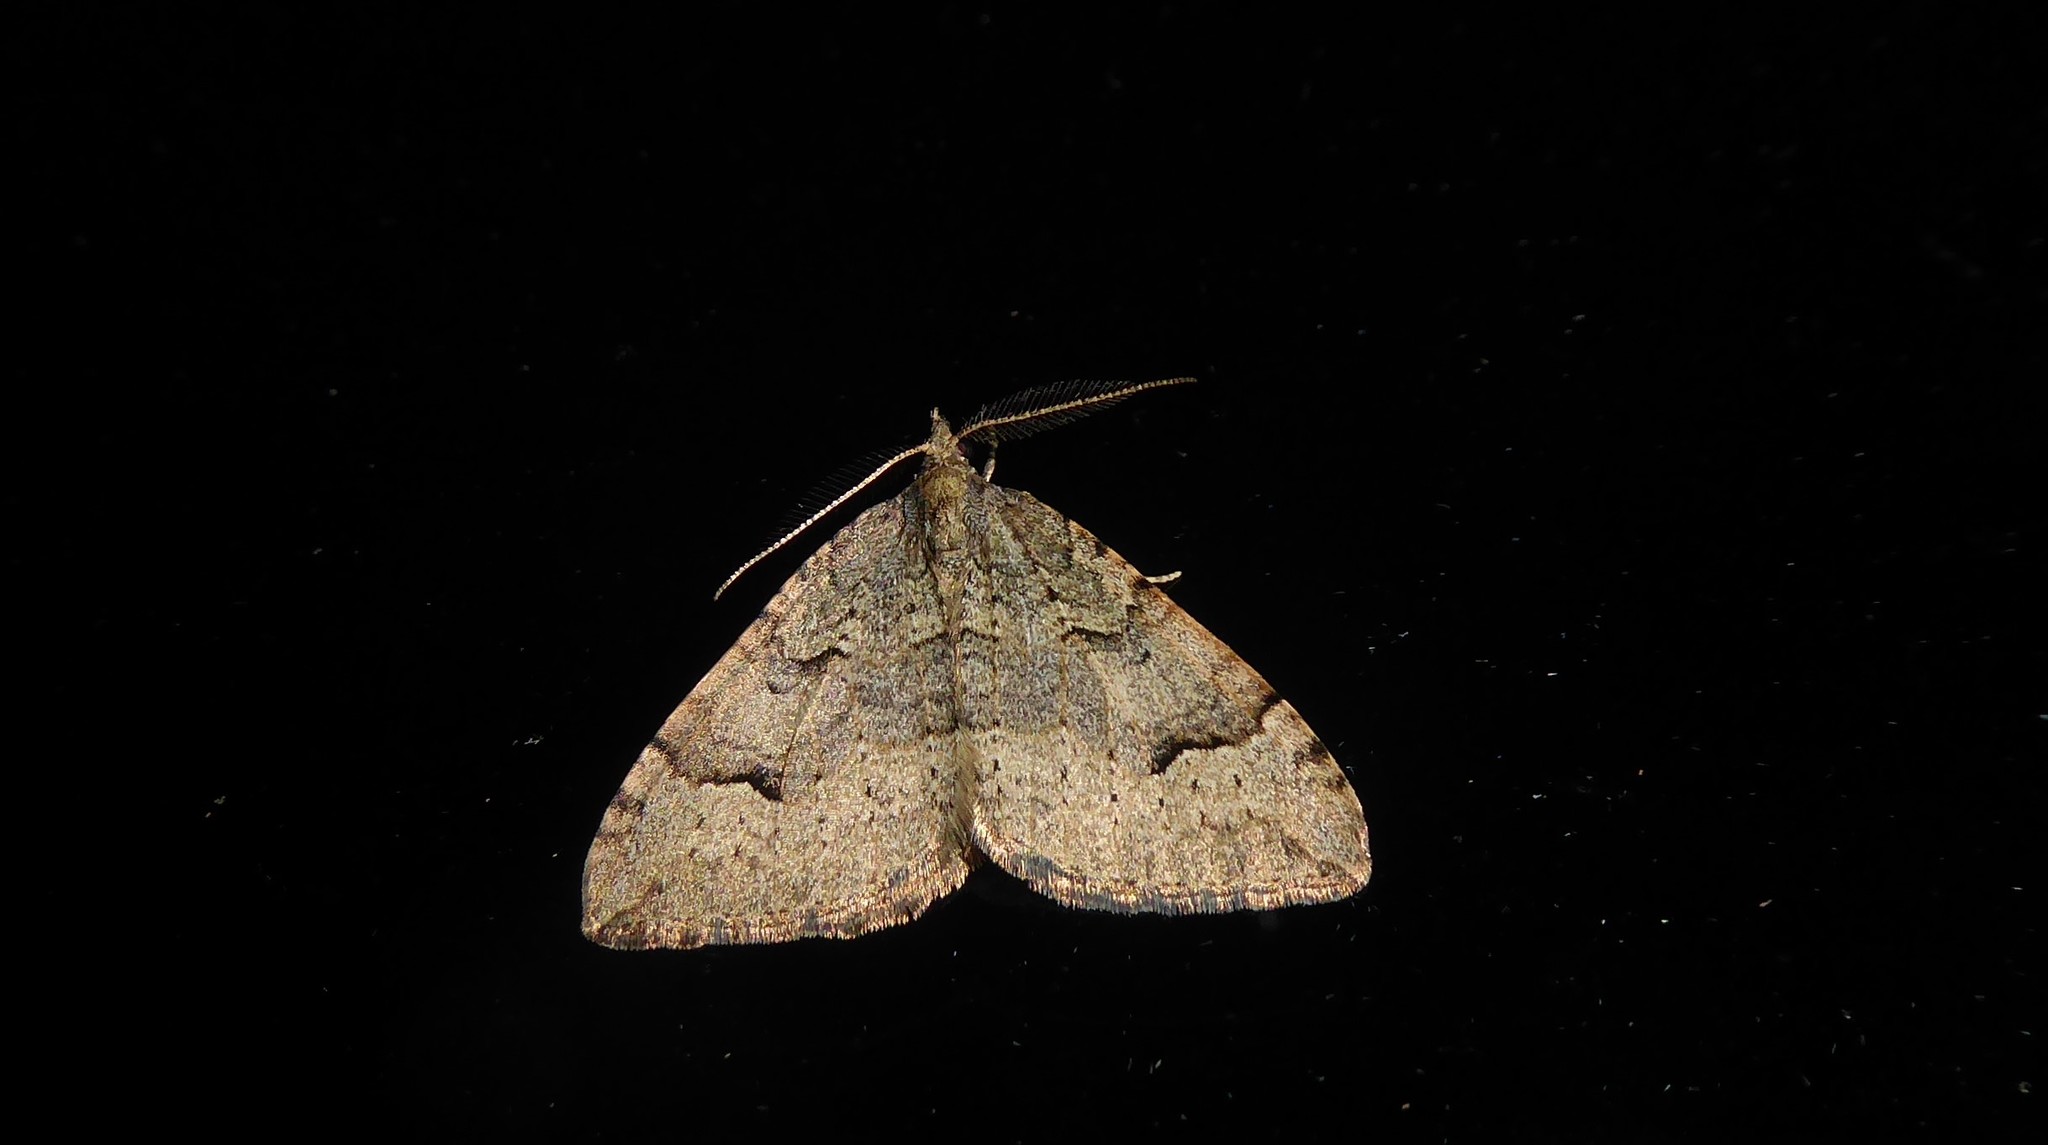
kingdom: Animalia
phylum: Arthropoda
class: Insecta
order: Lepidoptera
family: Geometridae
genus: Epyaxa
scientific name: Epyaxa rosearia
